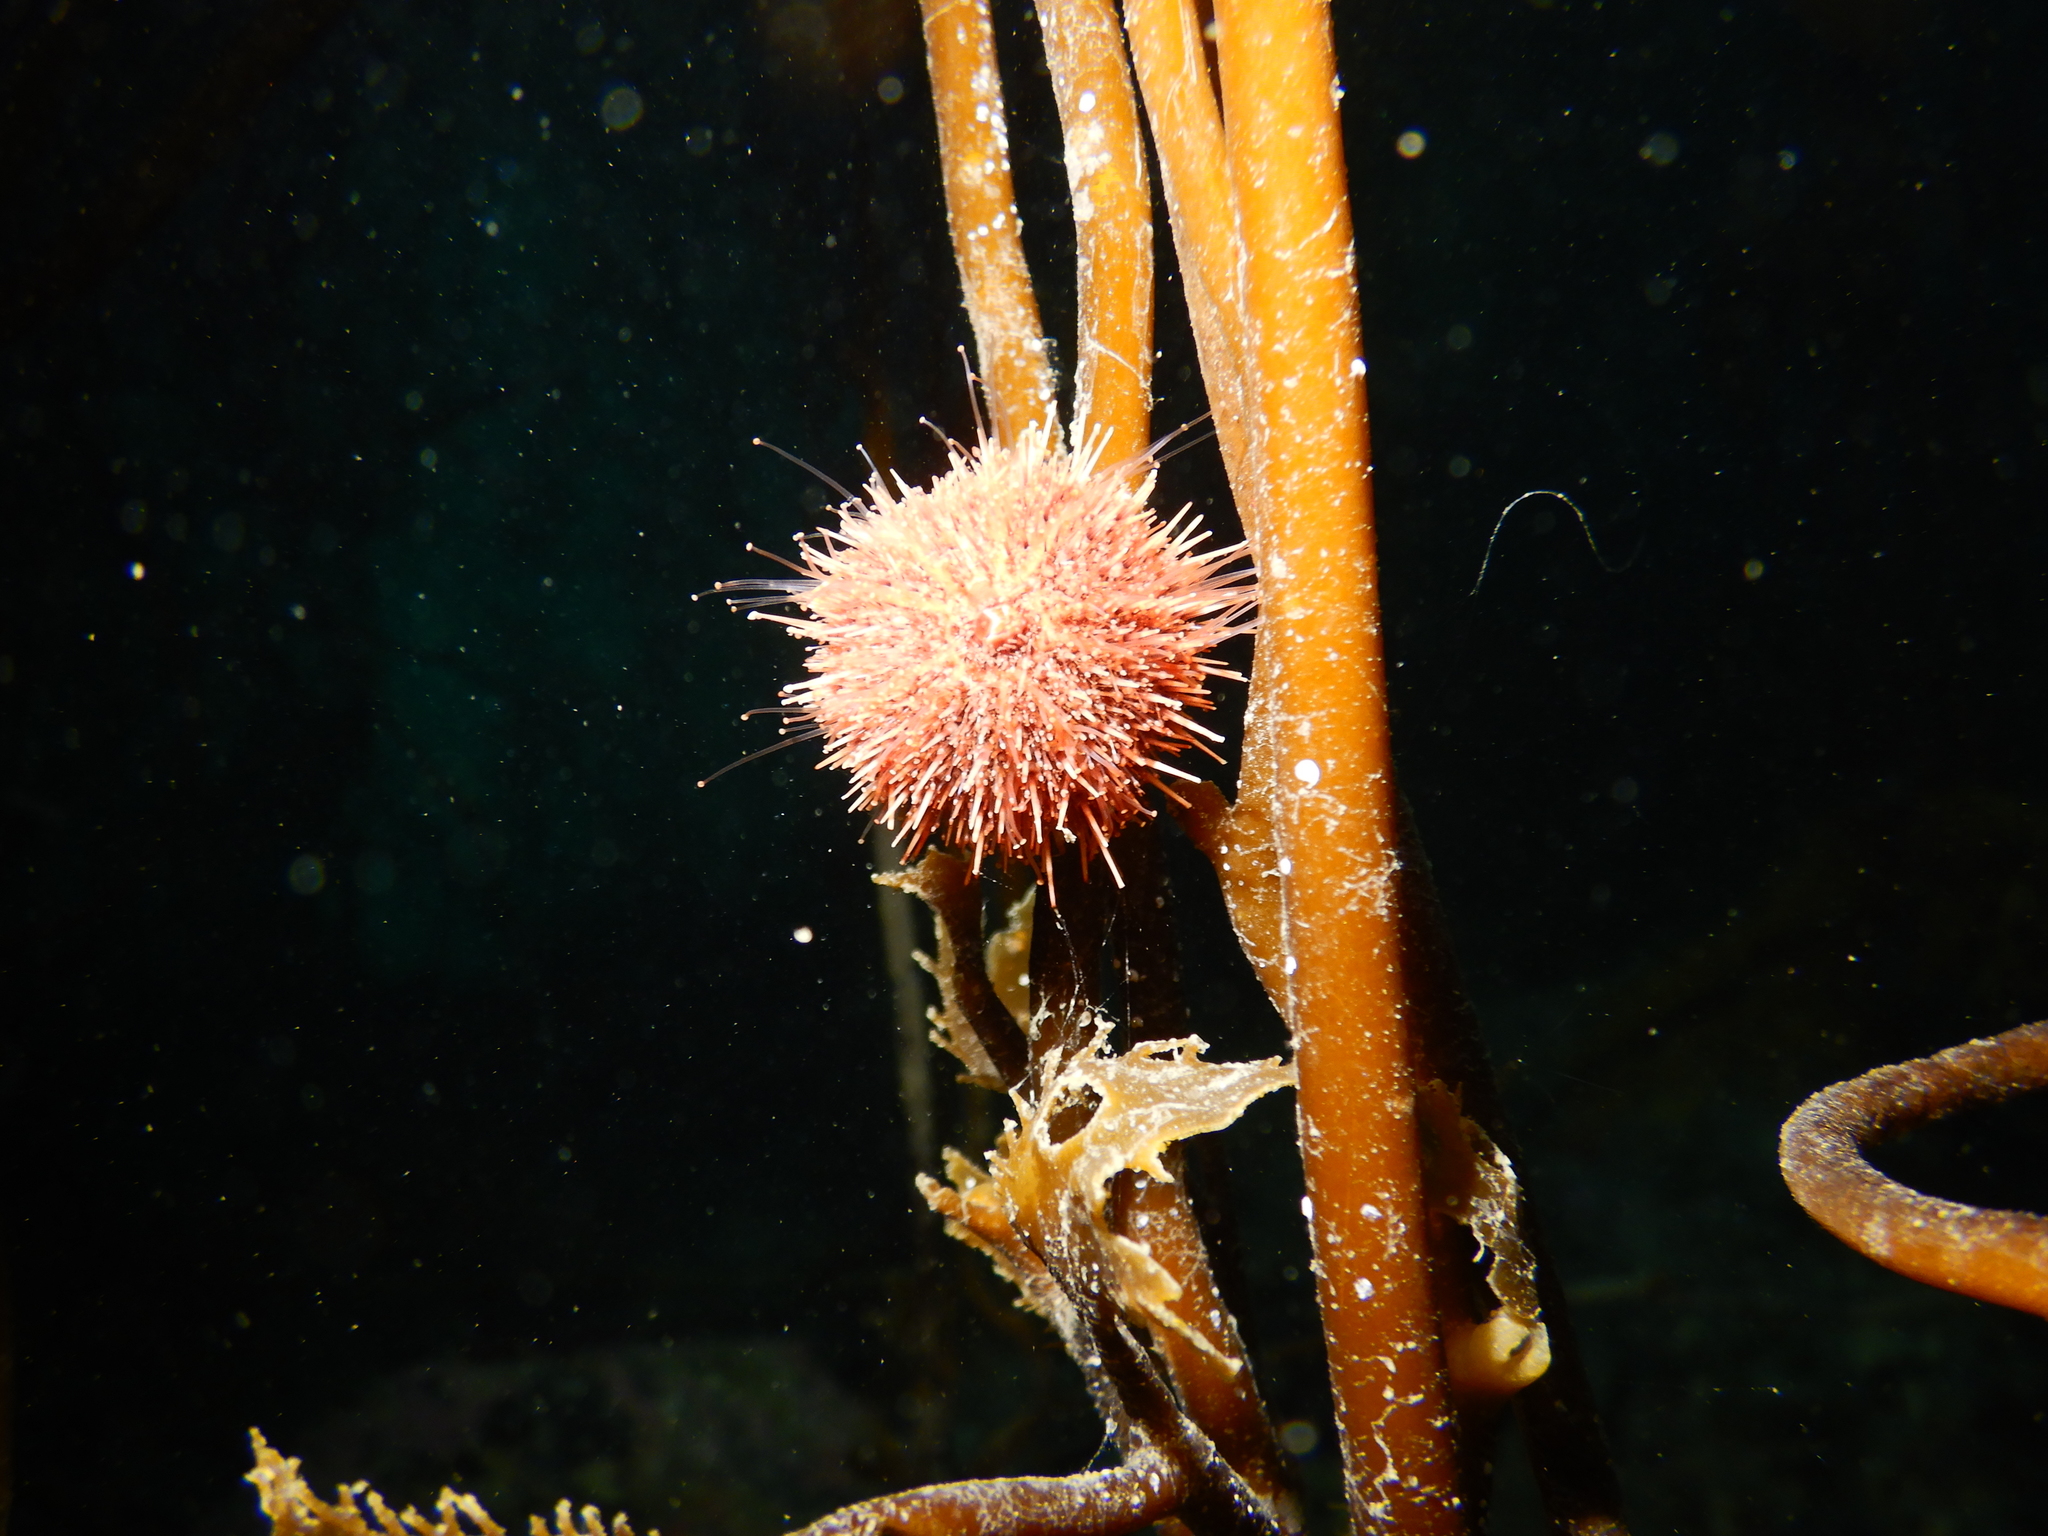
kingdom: Animalia
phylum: Echinodermata
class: Echinoidea
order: Camarodonta
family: Temnopleuridae
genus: Pseudechinus
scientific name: Pseudechinus magellanicus
